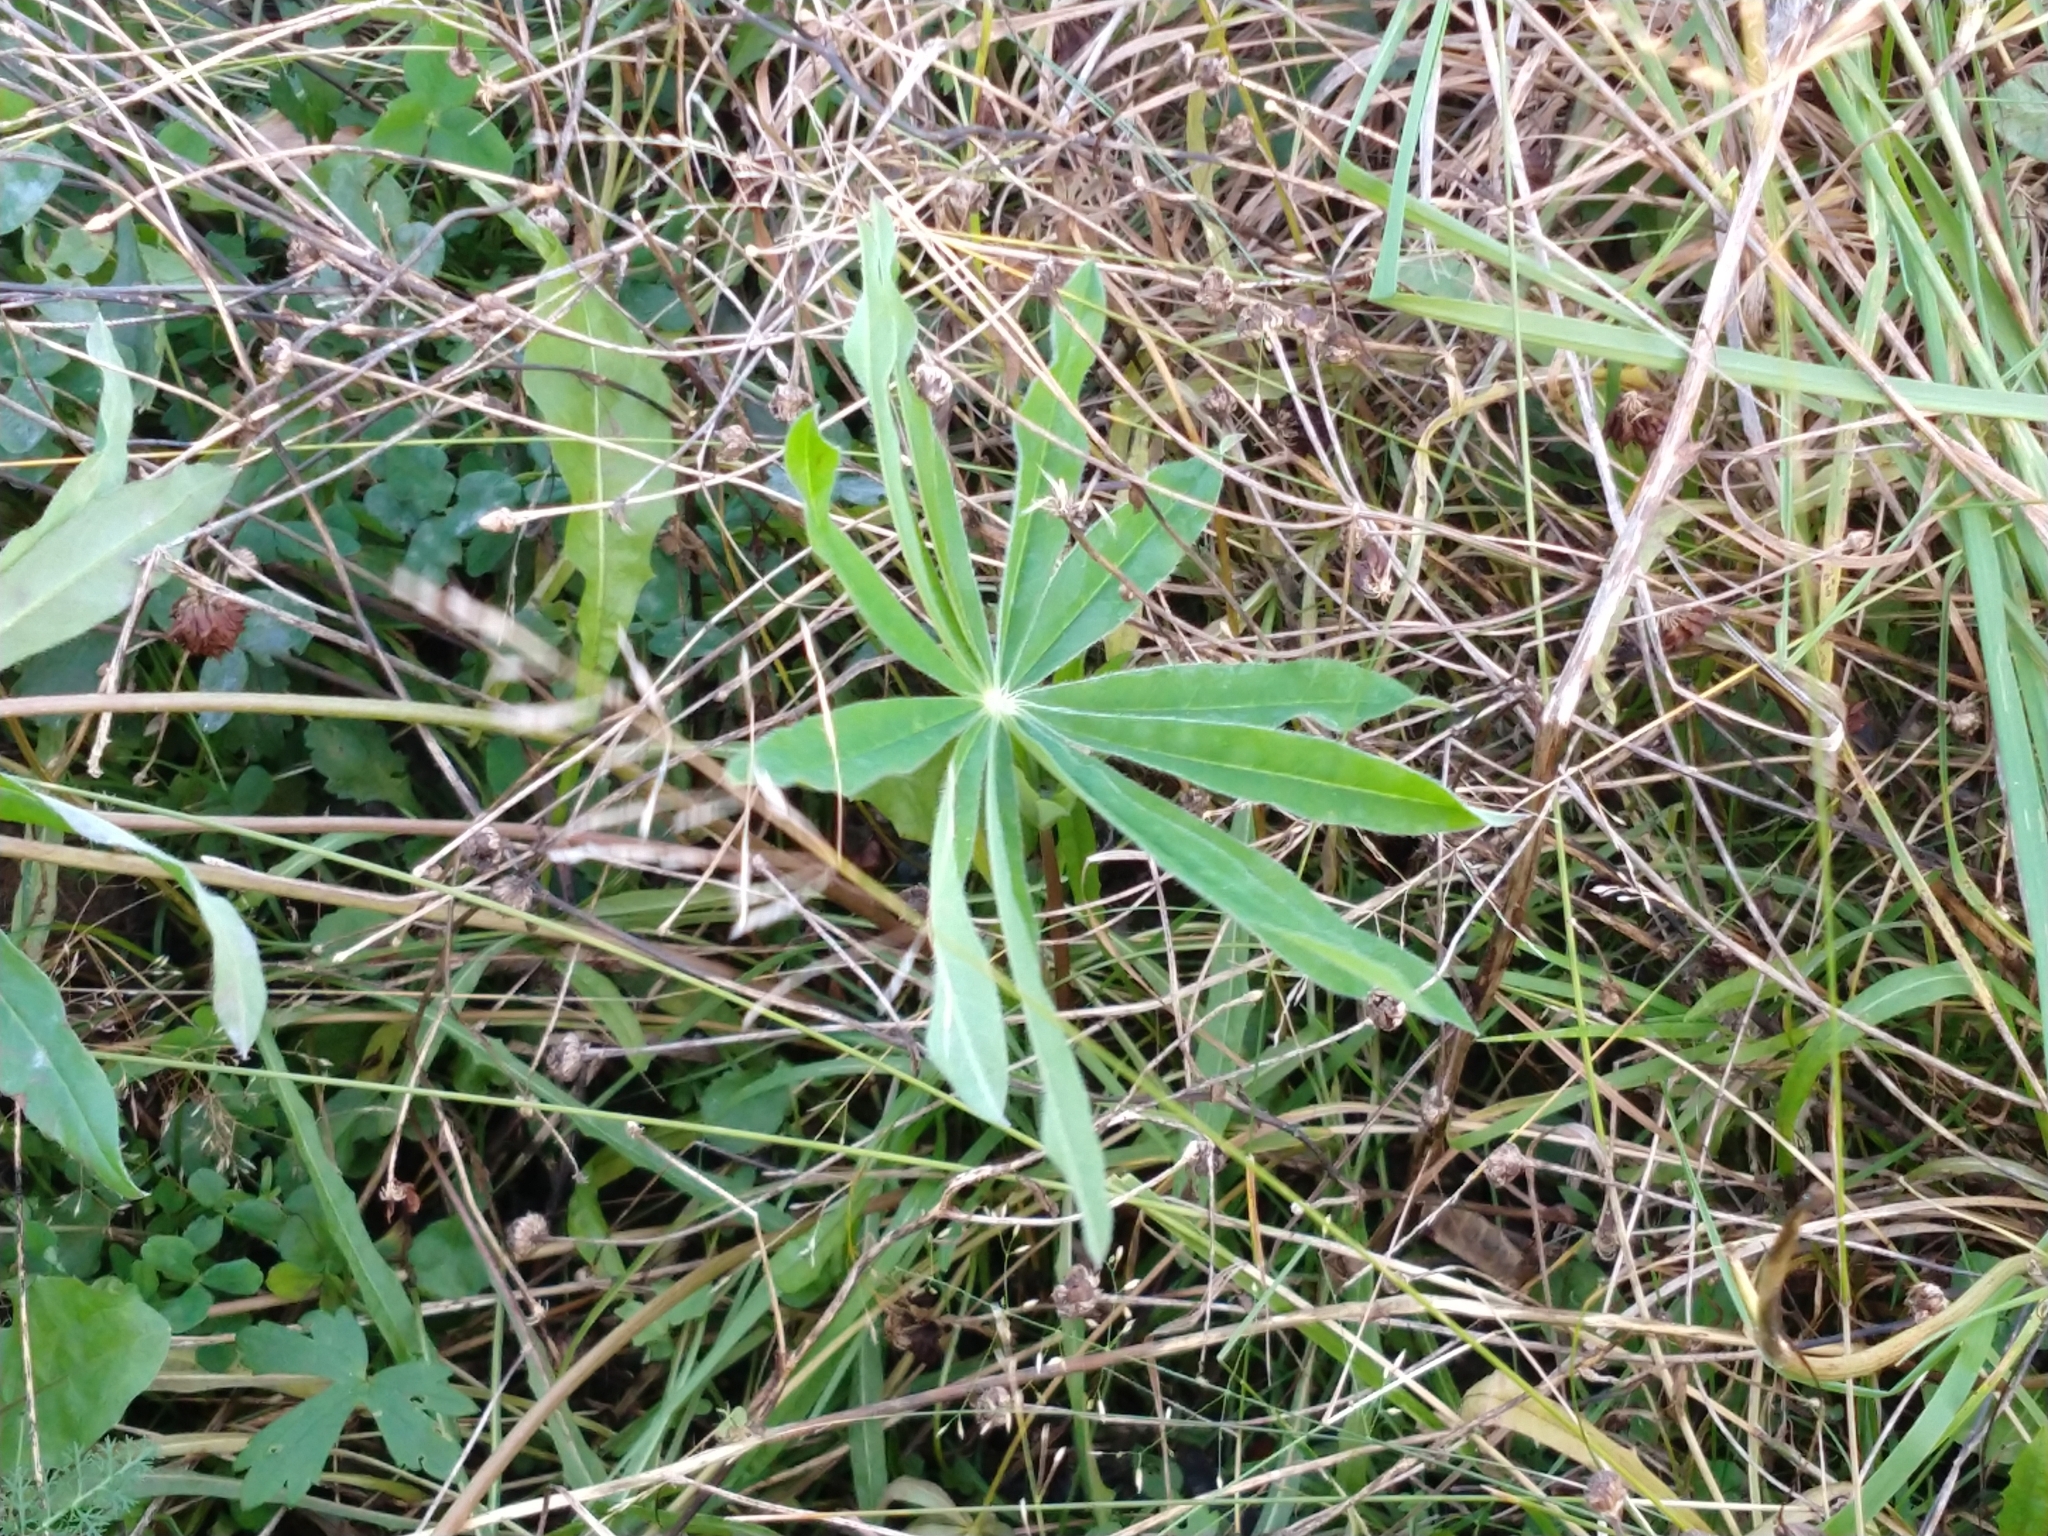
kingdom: Plantae
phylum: Tracheophyta
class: Magnoliopsida
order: Fabales
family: Fabaceae
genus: Lupinus
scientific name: Lupinus polyphyllus
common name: Garden lupin
